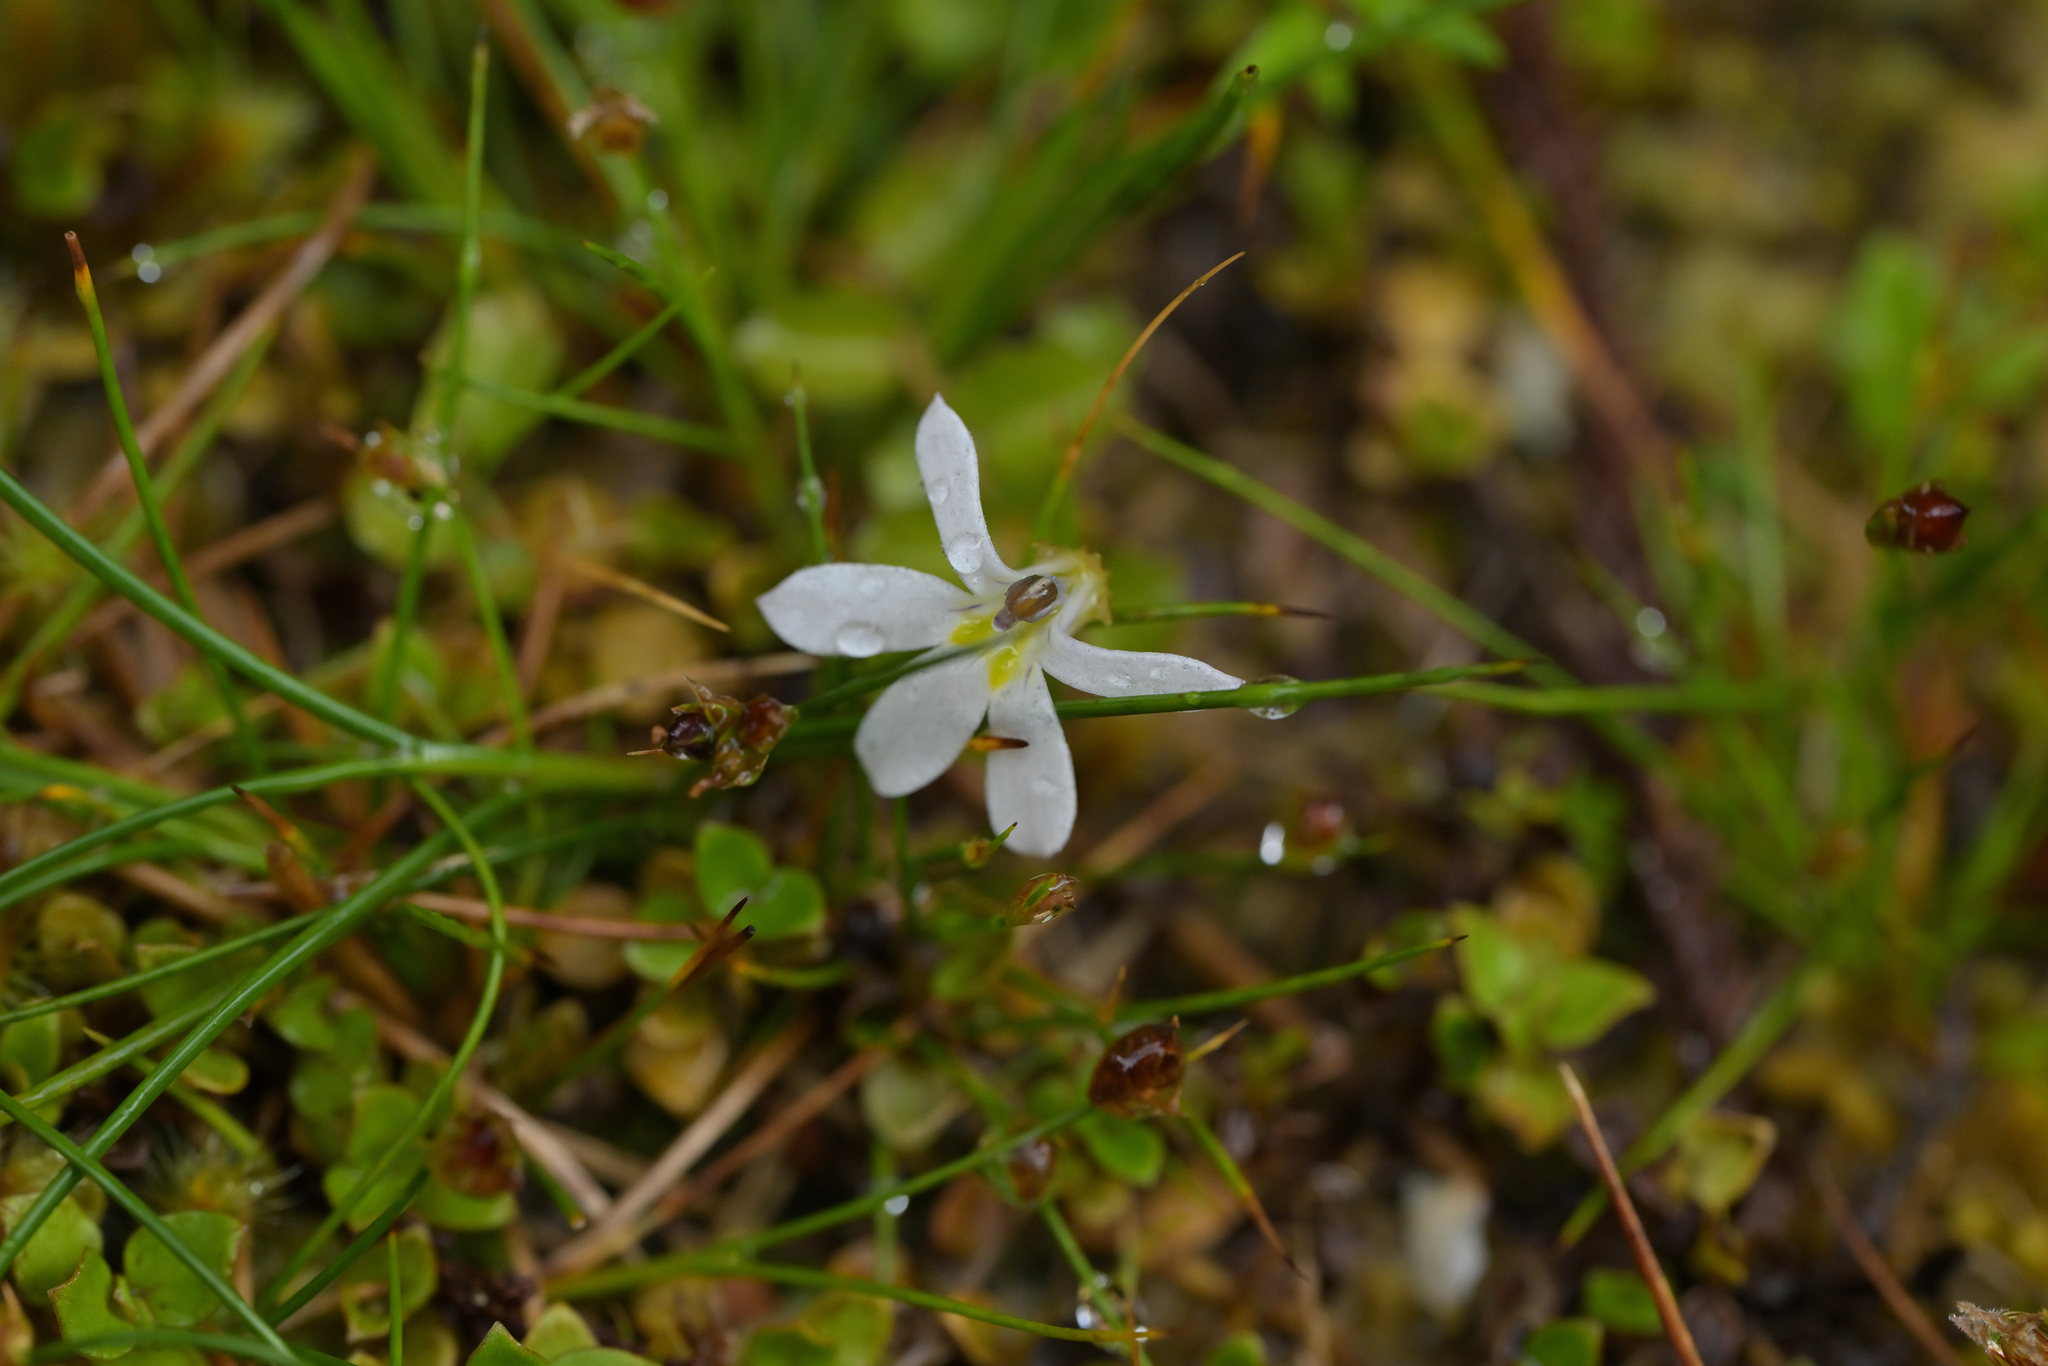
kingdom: Plantae
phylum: Tracheophyta
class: Magnoliopsida
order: Asterales
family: Campanulaceae
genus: Lobelia
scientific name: Lobelia angulata
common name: Lawn lobelia
